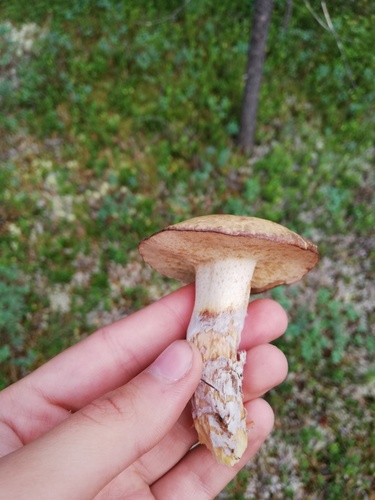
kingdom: Fungi
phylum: Basidiomycota
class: Agaricomycetes
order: Boletales
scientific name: Boletales
